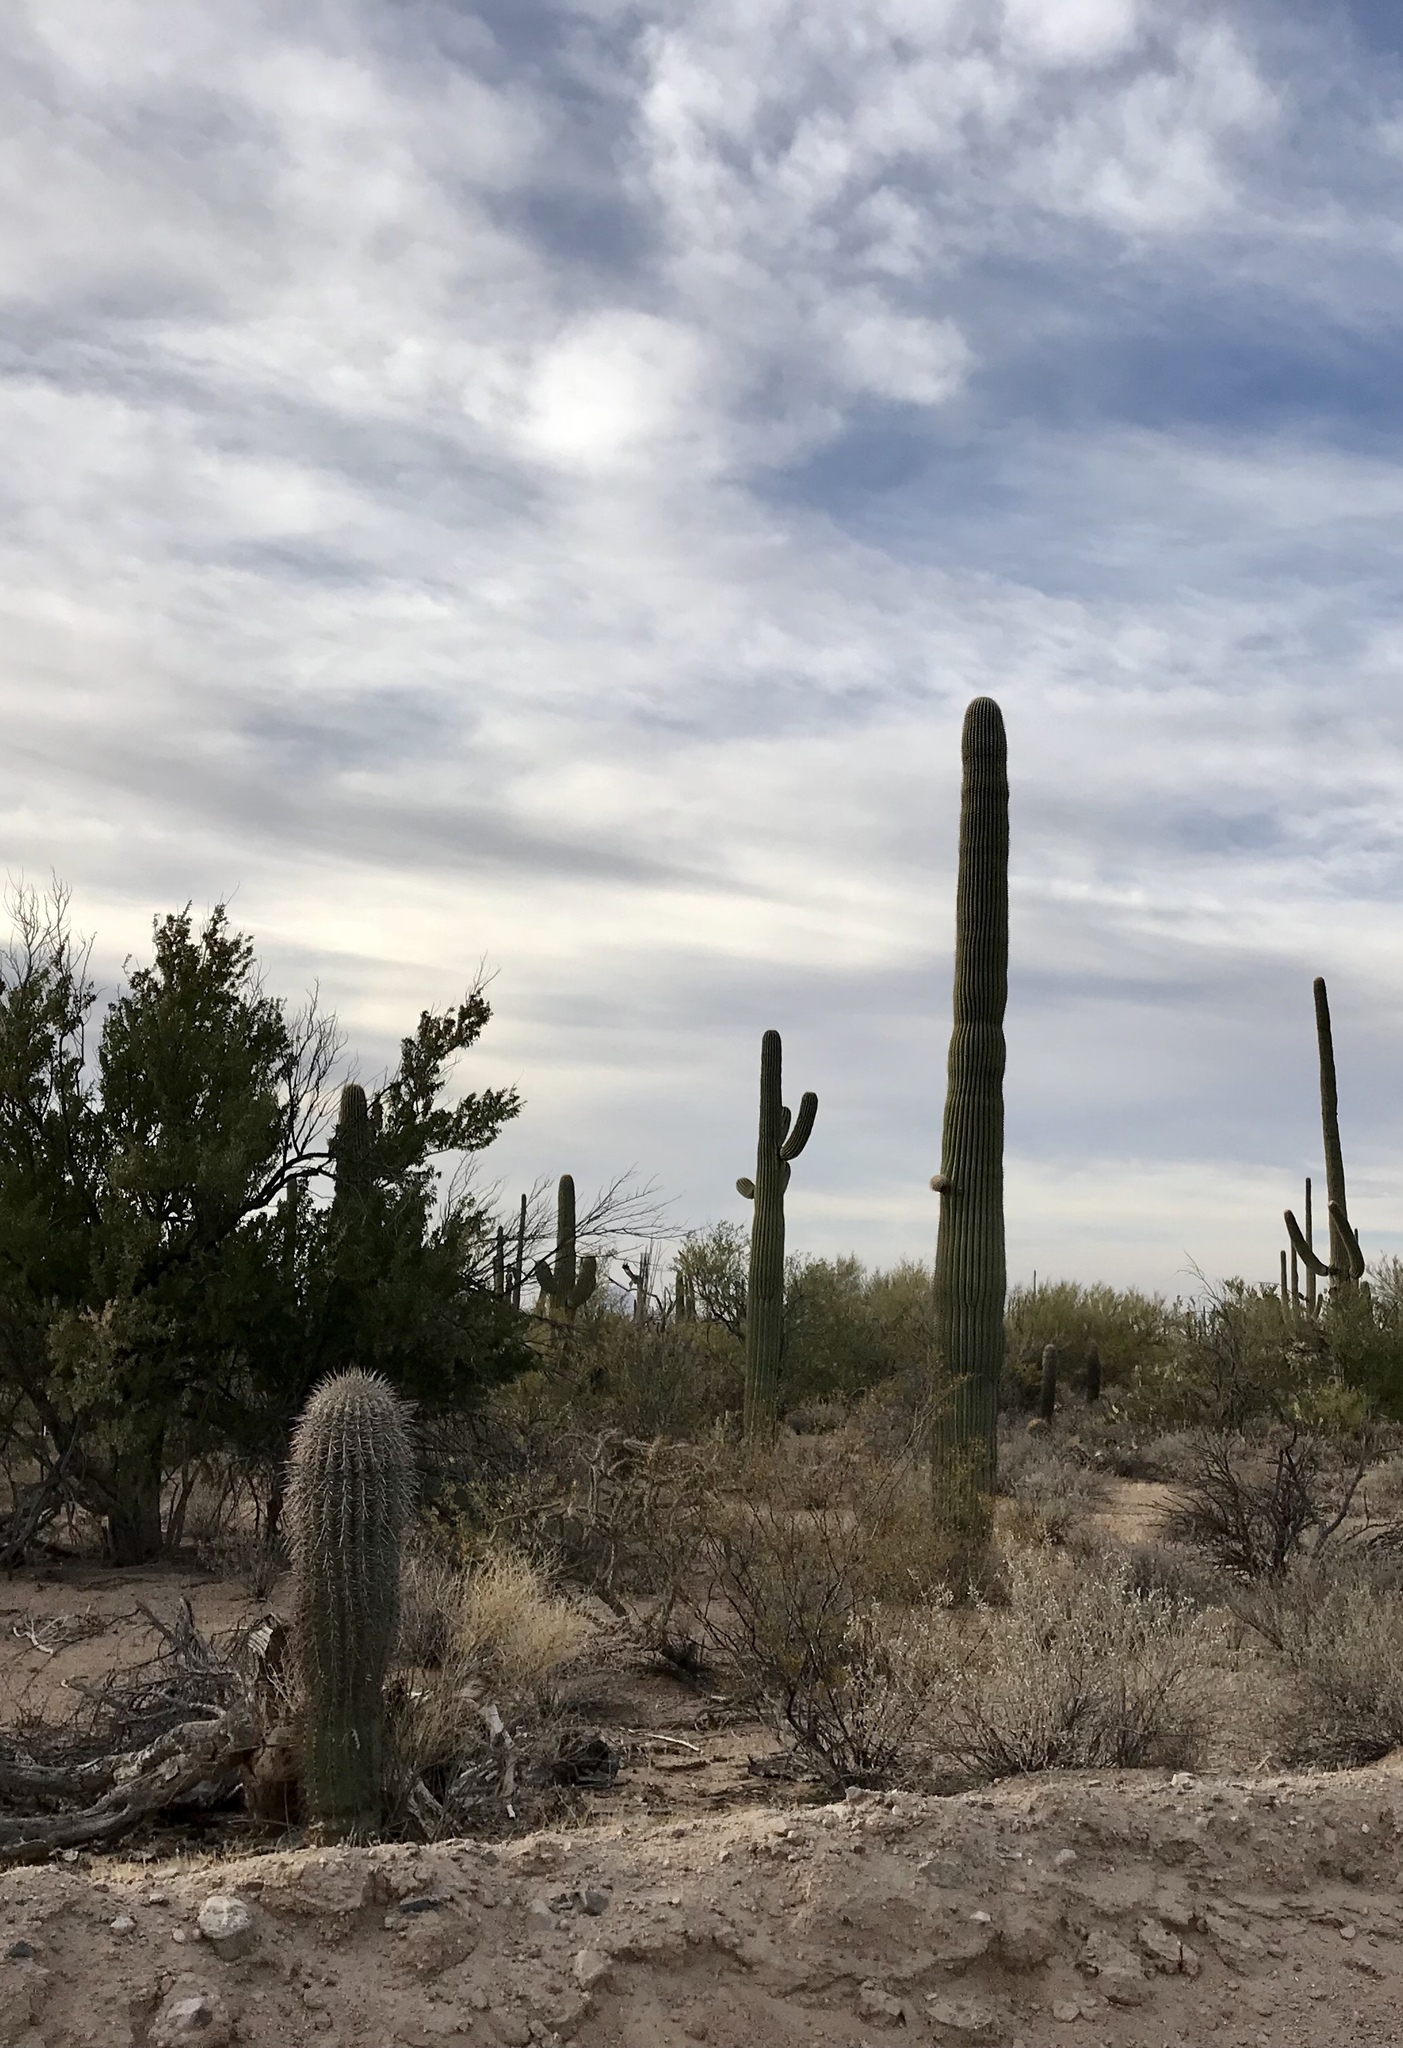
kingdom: Plantae
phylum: Tracheophyta
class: Magnoliopsida
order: Caryophyllales
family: Cactaceae
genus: Carnegiea
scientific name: Carnegiea gigantea
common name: Saguaro
